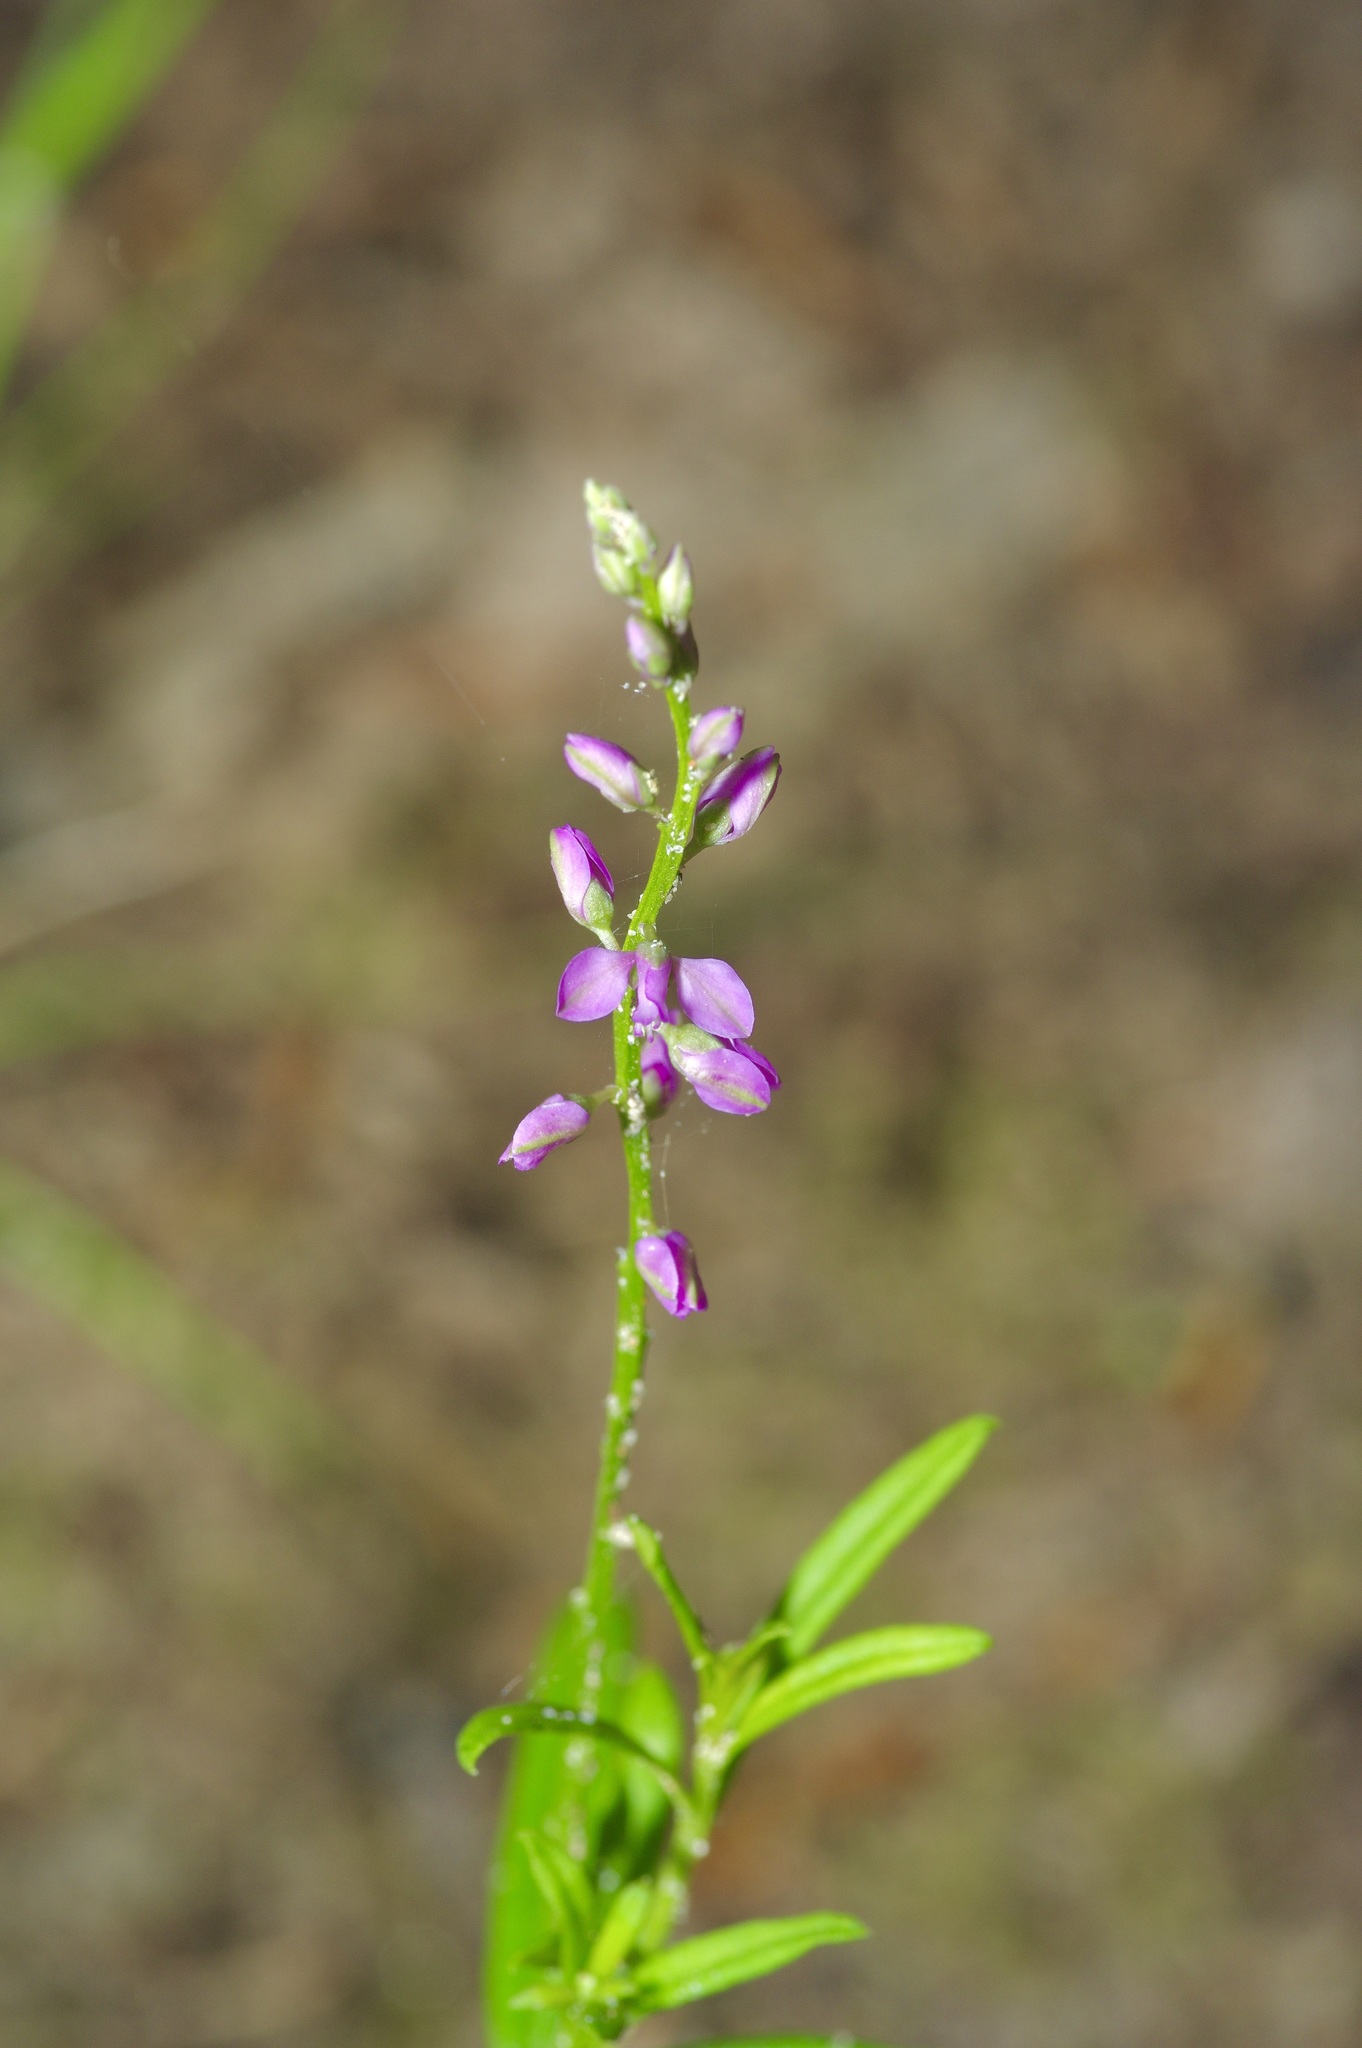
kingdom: Plantae
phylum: Tracheophyta
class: Magnoliopsida
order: Fabales
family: Polygalaceae
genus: Polygala
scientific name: Polygala polygama
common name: Bitter milkwort
